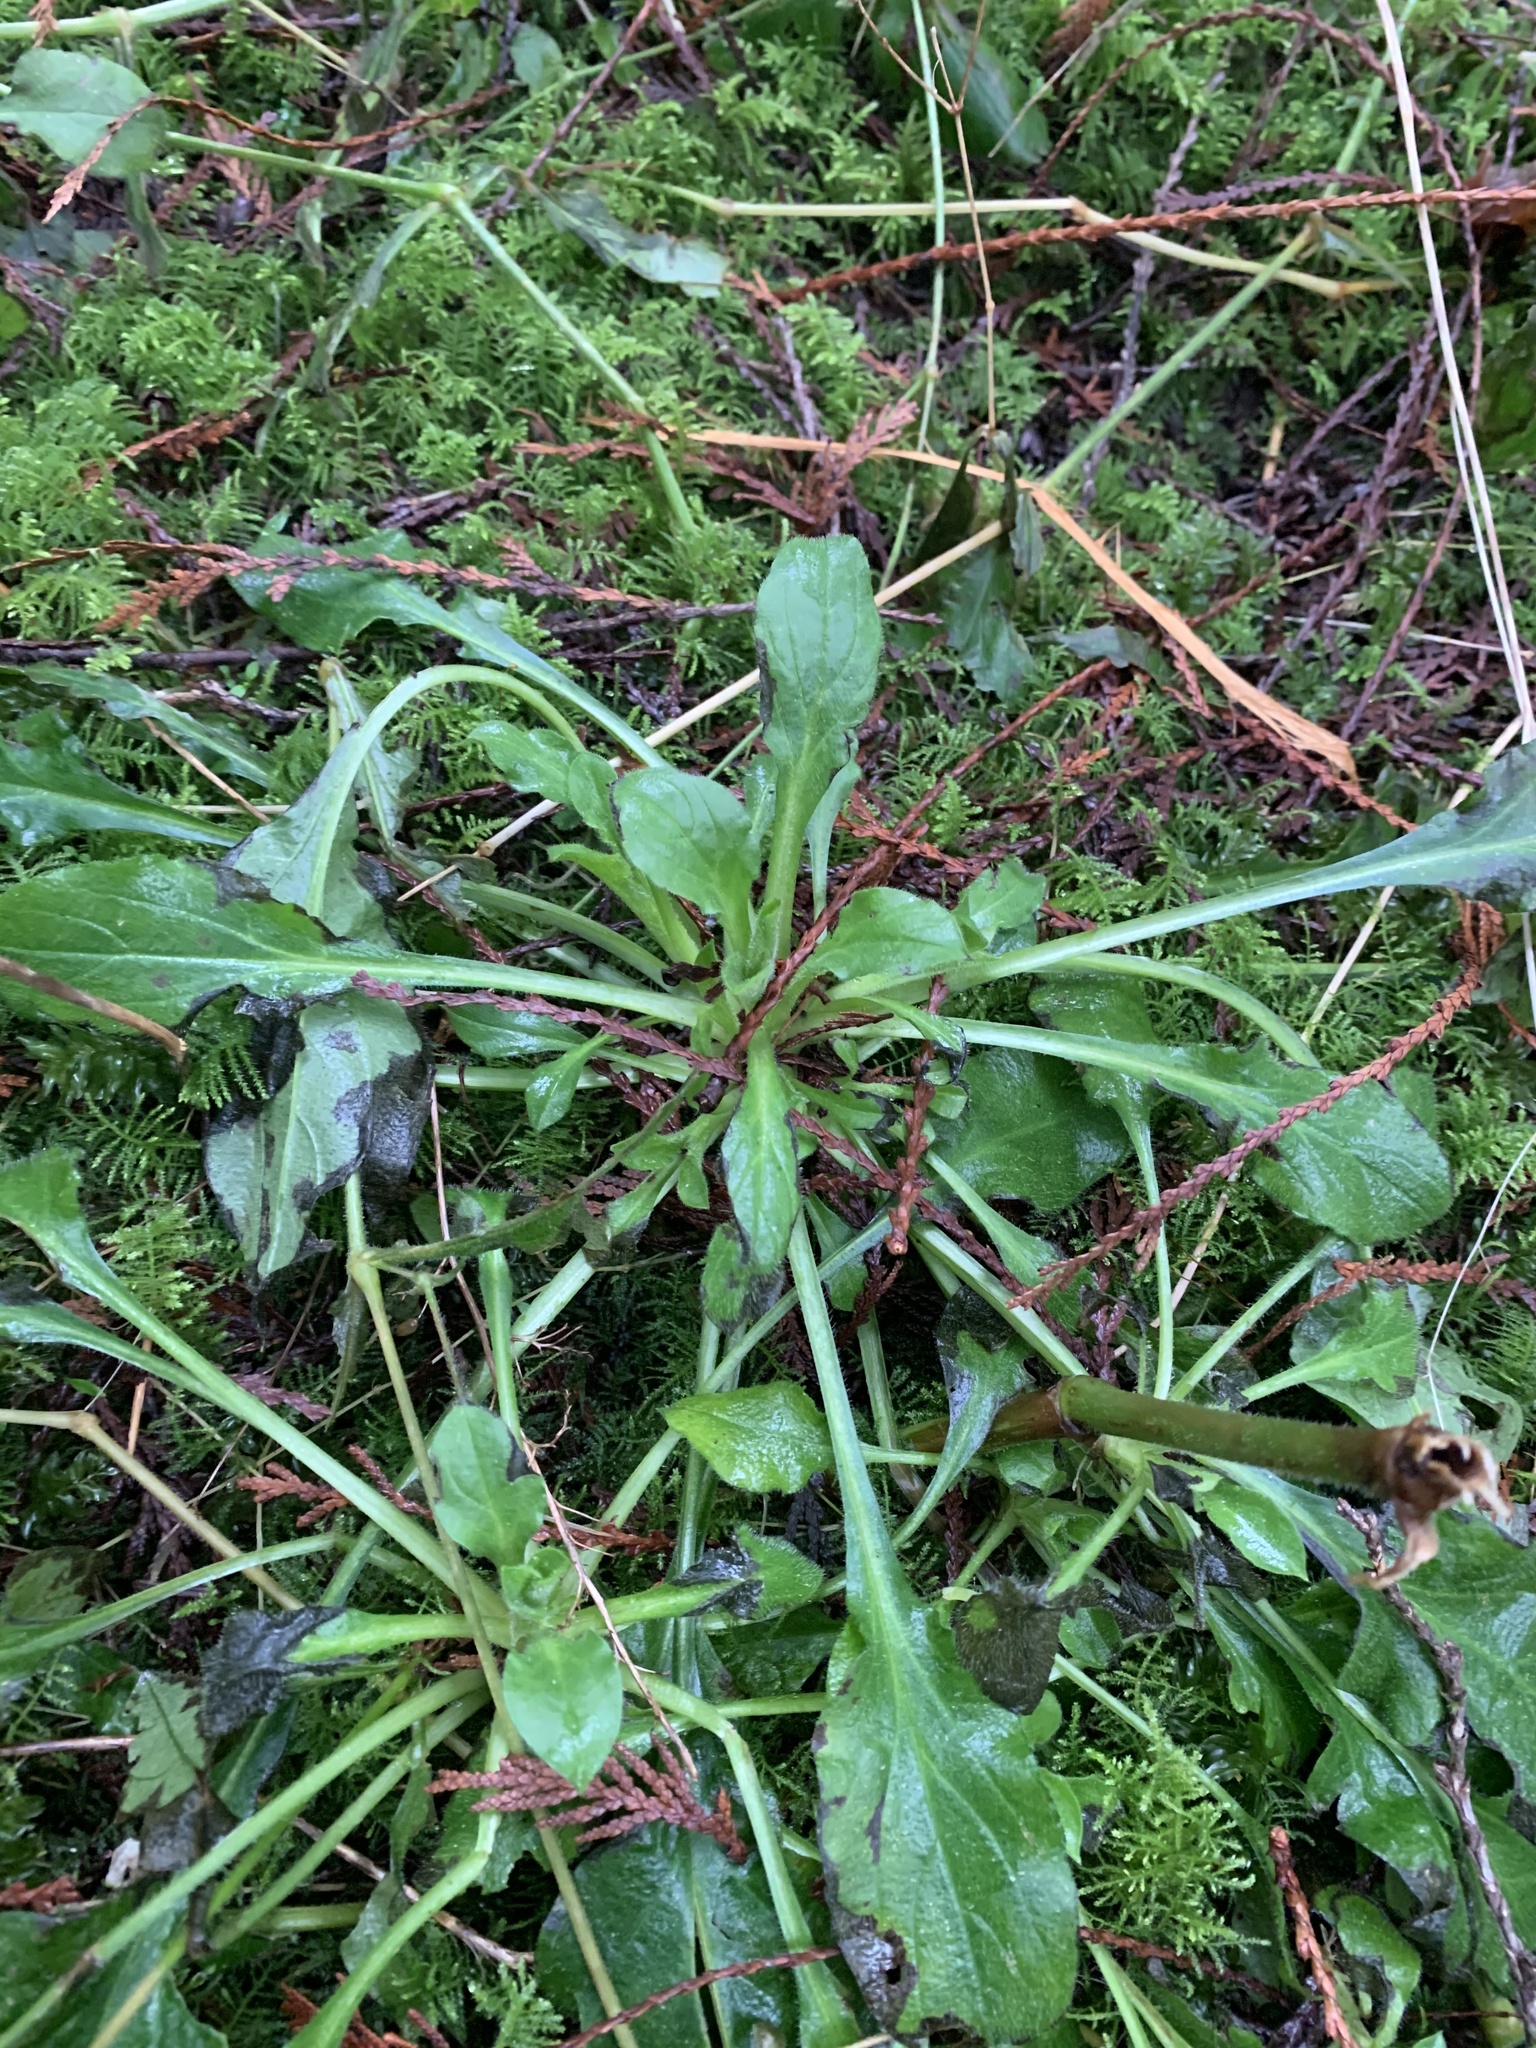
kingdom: Plantae
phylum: Tracheophyta
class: Magnoliopsida
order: Asterales
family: Asteraceae
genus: Bellis
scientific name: Bellis perennis
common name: Lawndaisy
